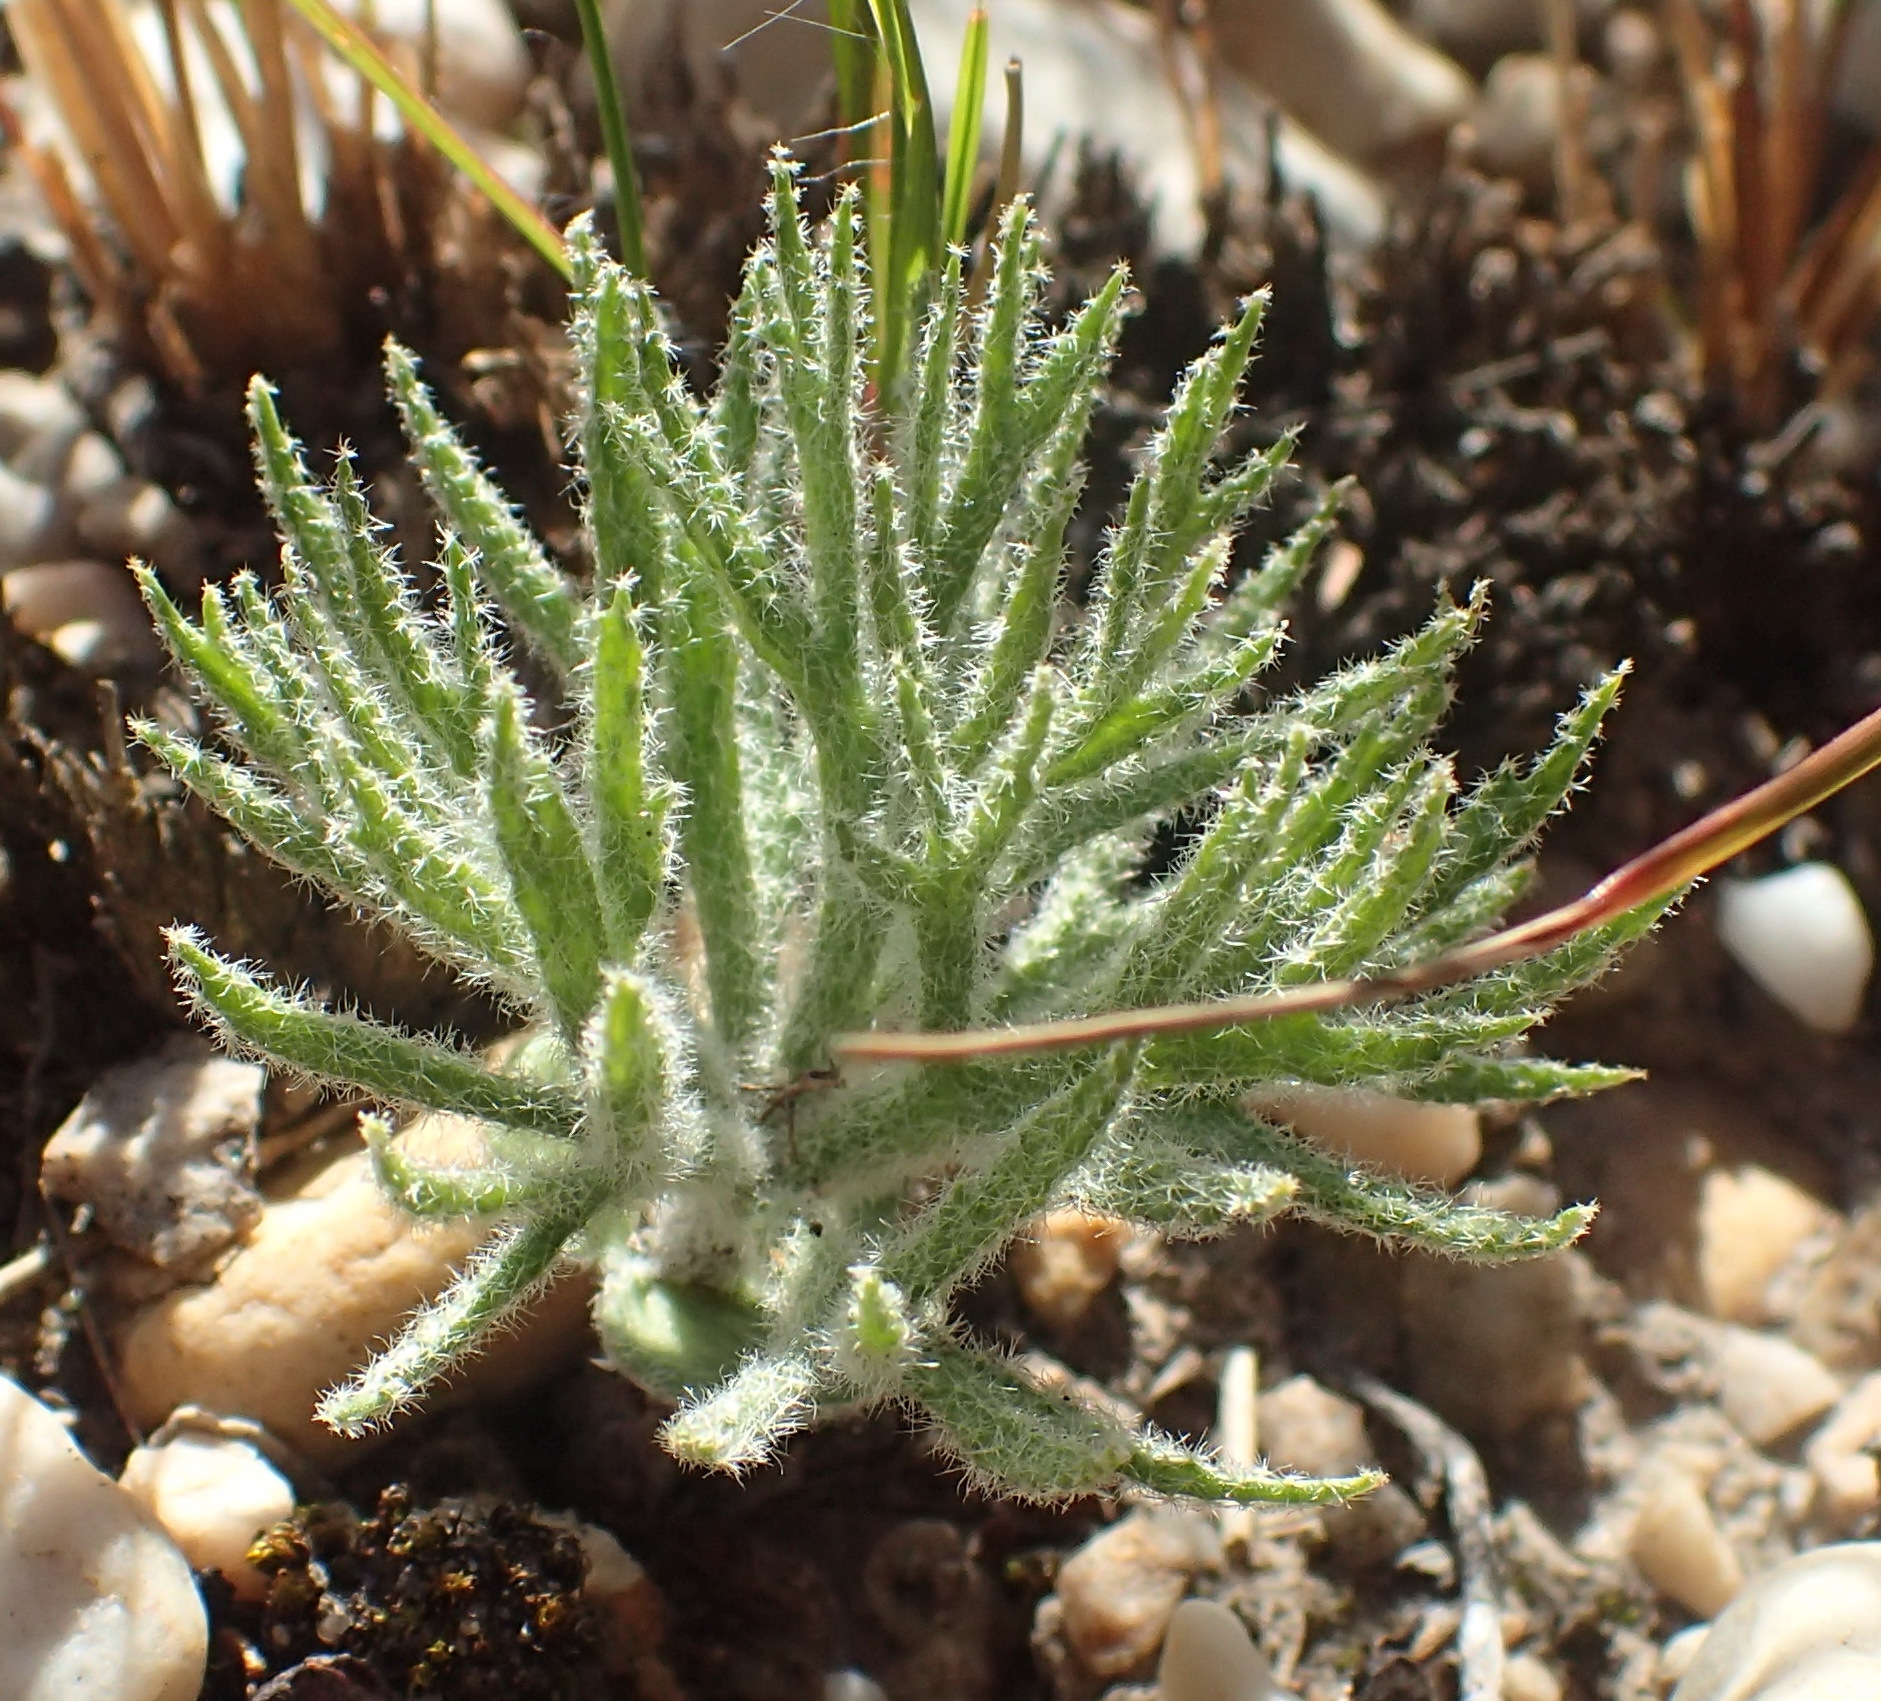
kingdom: Plantae
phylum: Tracheophyta
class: Liliopsida
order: Asparagales
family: Asparagaceae
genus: Eriospermum
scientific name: Eriospermum dregei
